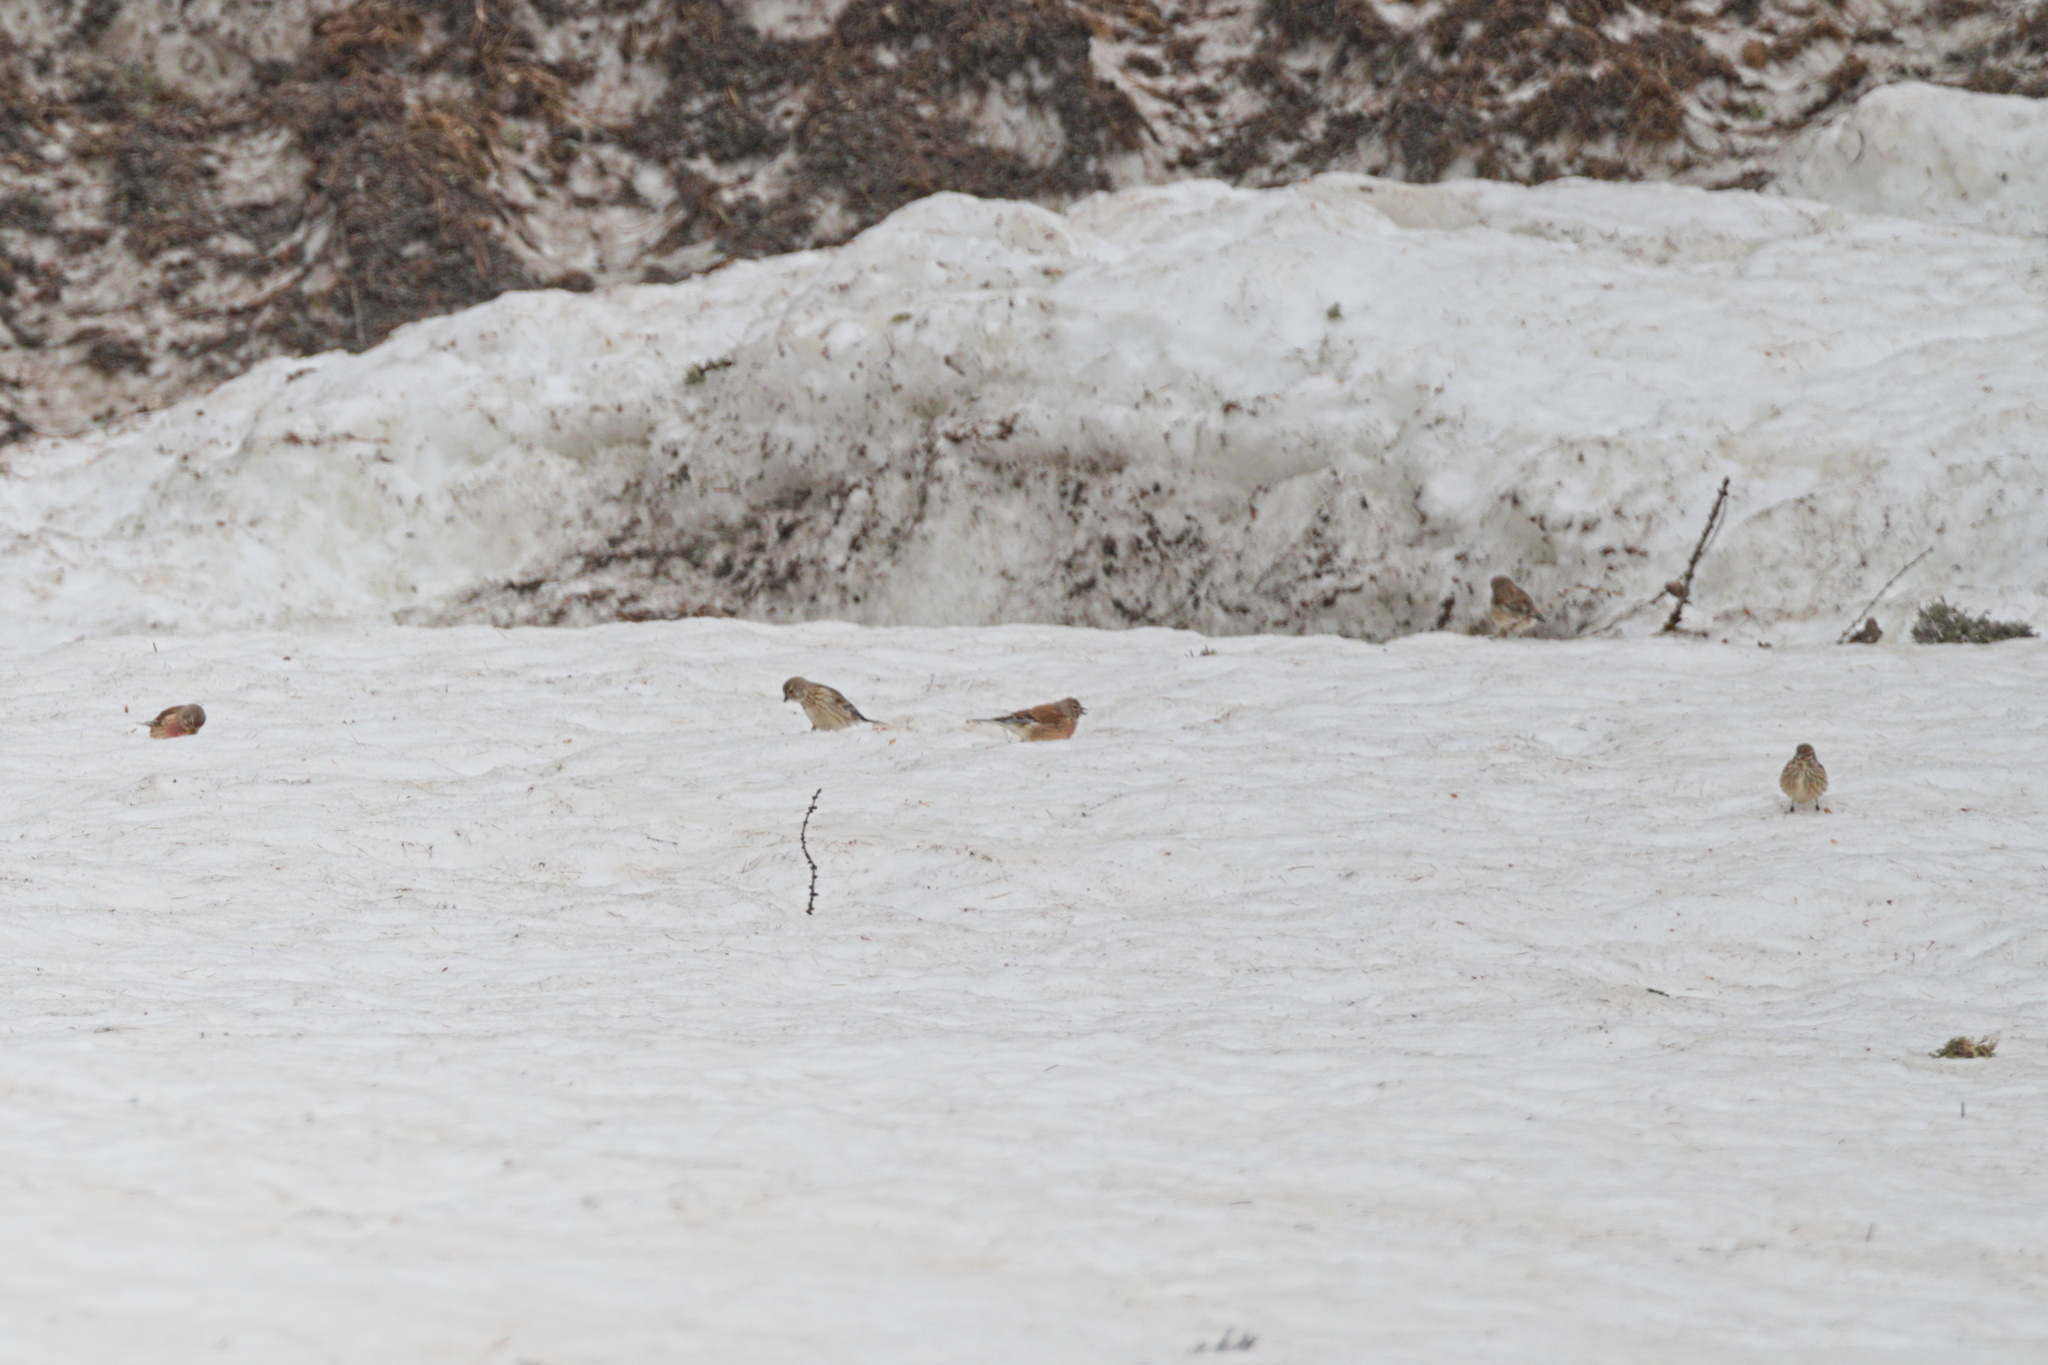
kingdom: Animalia
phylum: Chordata
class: Aves
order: Passeriformes
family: Fringillidae
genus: Linaria
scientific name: Linaria cannabina
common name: Common linnet
